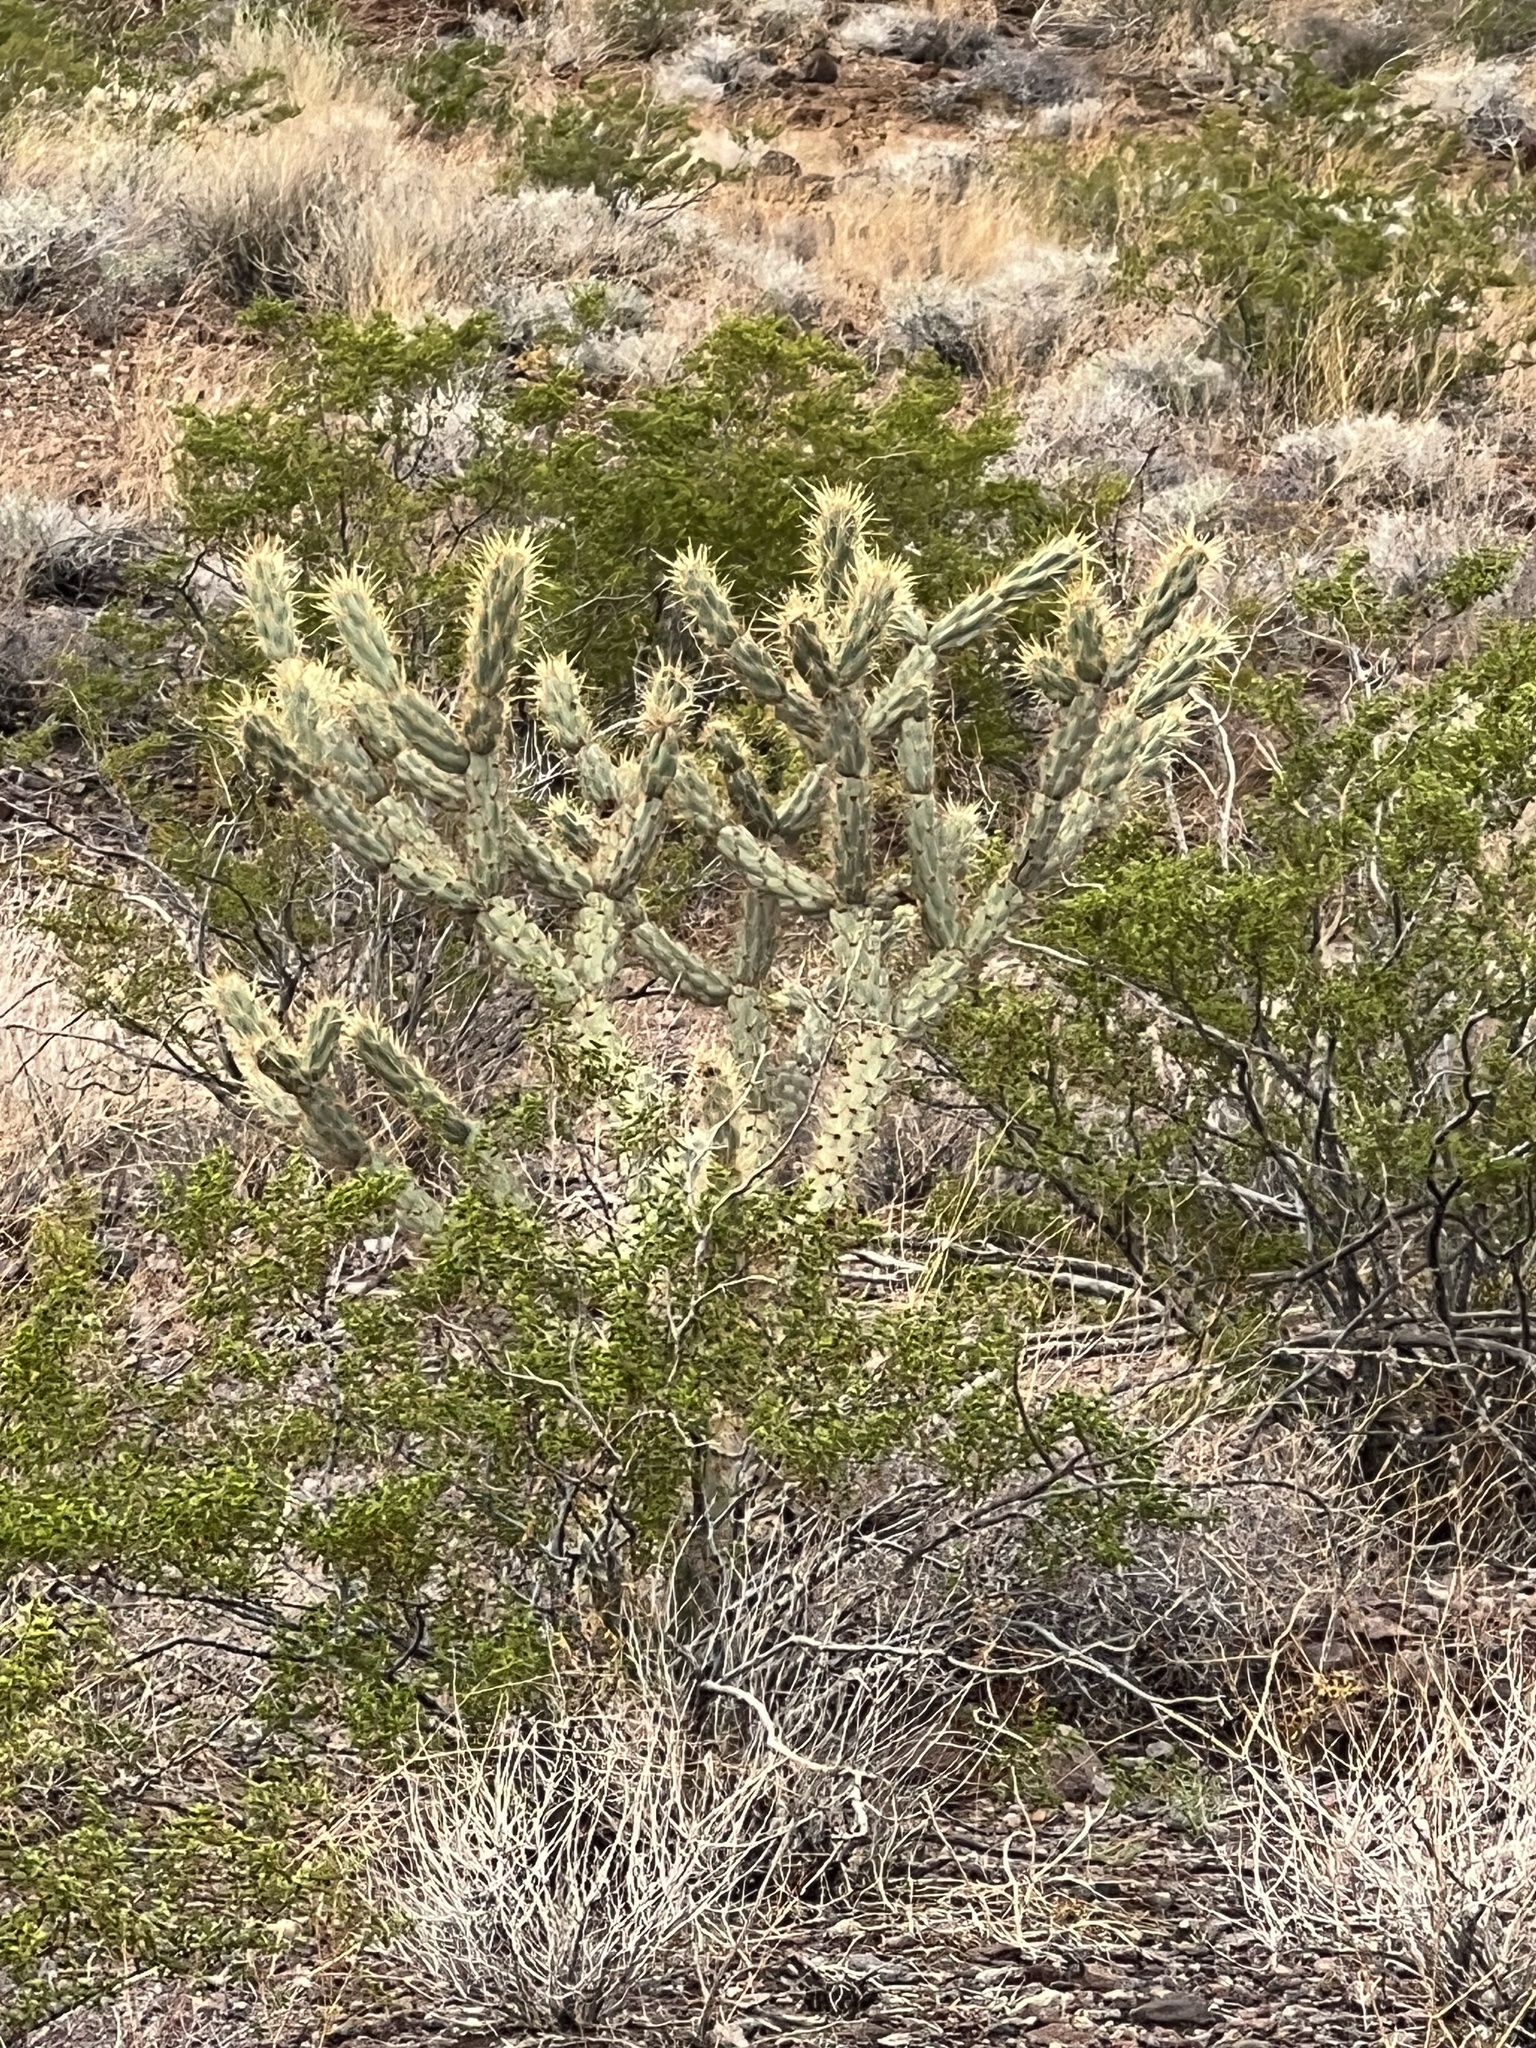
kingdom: Plantae
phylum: Tracheophyta
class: Magnoliopsida
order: Caryophyllales
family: Cactaceae
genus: Cylindropuntia
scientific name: Cylindropuntia acanthocarpa
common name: Buckhorn cholla
